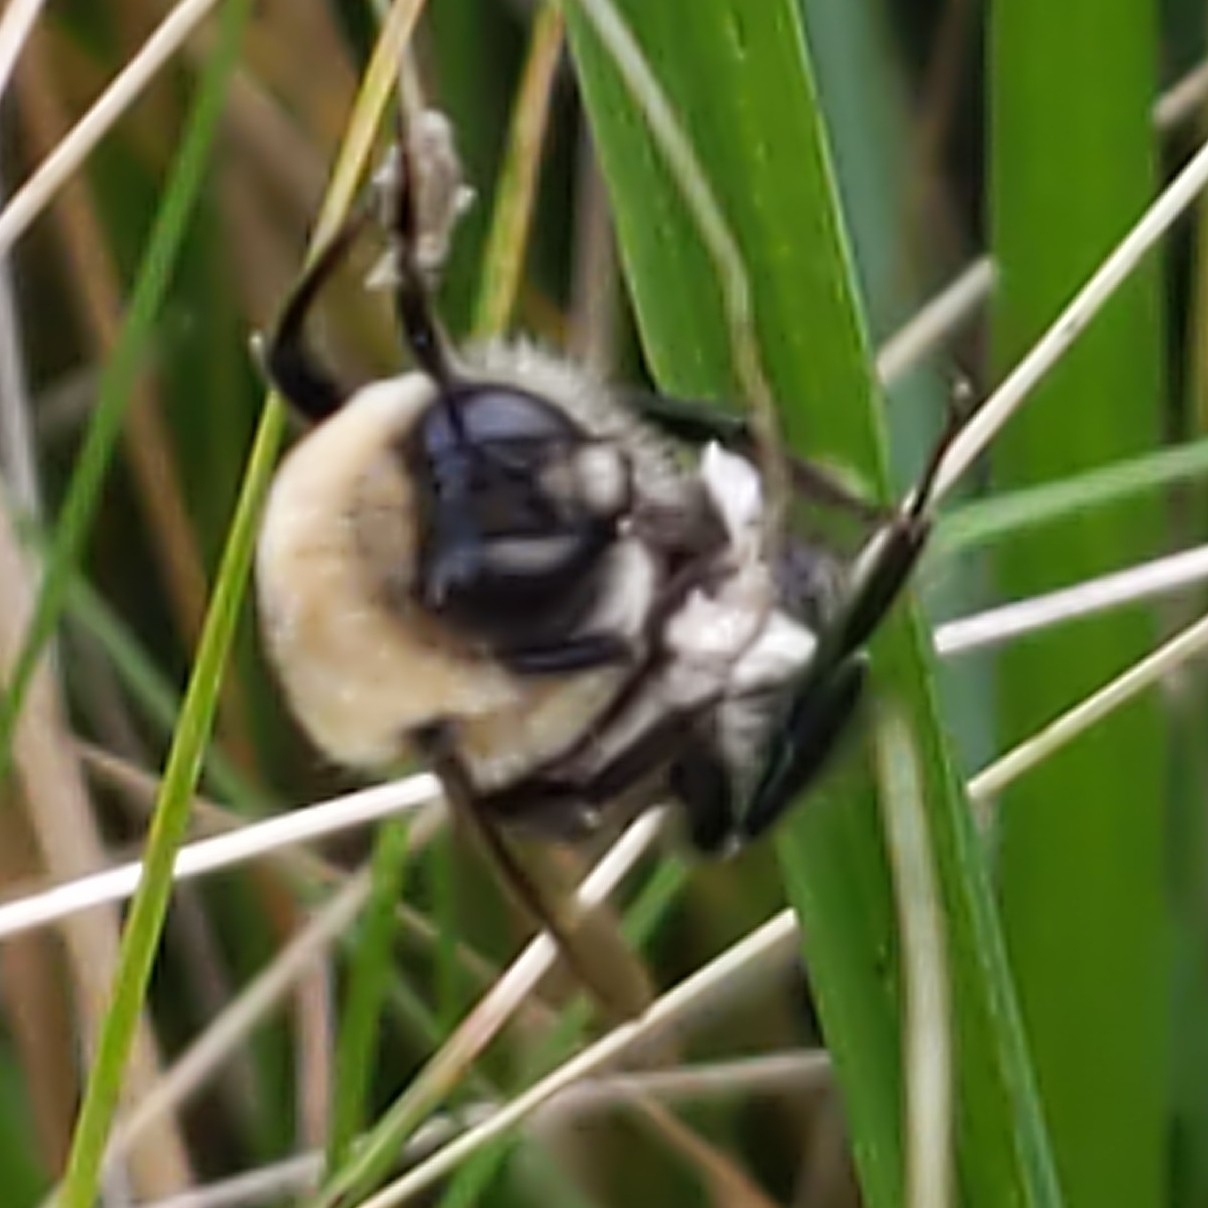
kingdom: Animalia
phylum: Arthropoda
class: Insecta
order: Hymenoptera
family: Apidae
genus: Bombus
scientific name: Bombus griseocollis
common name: Brown-belted bumble bee
